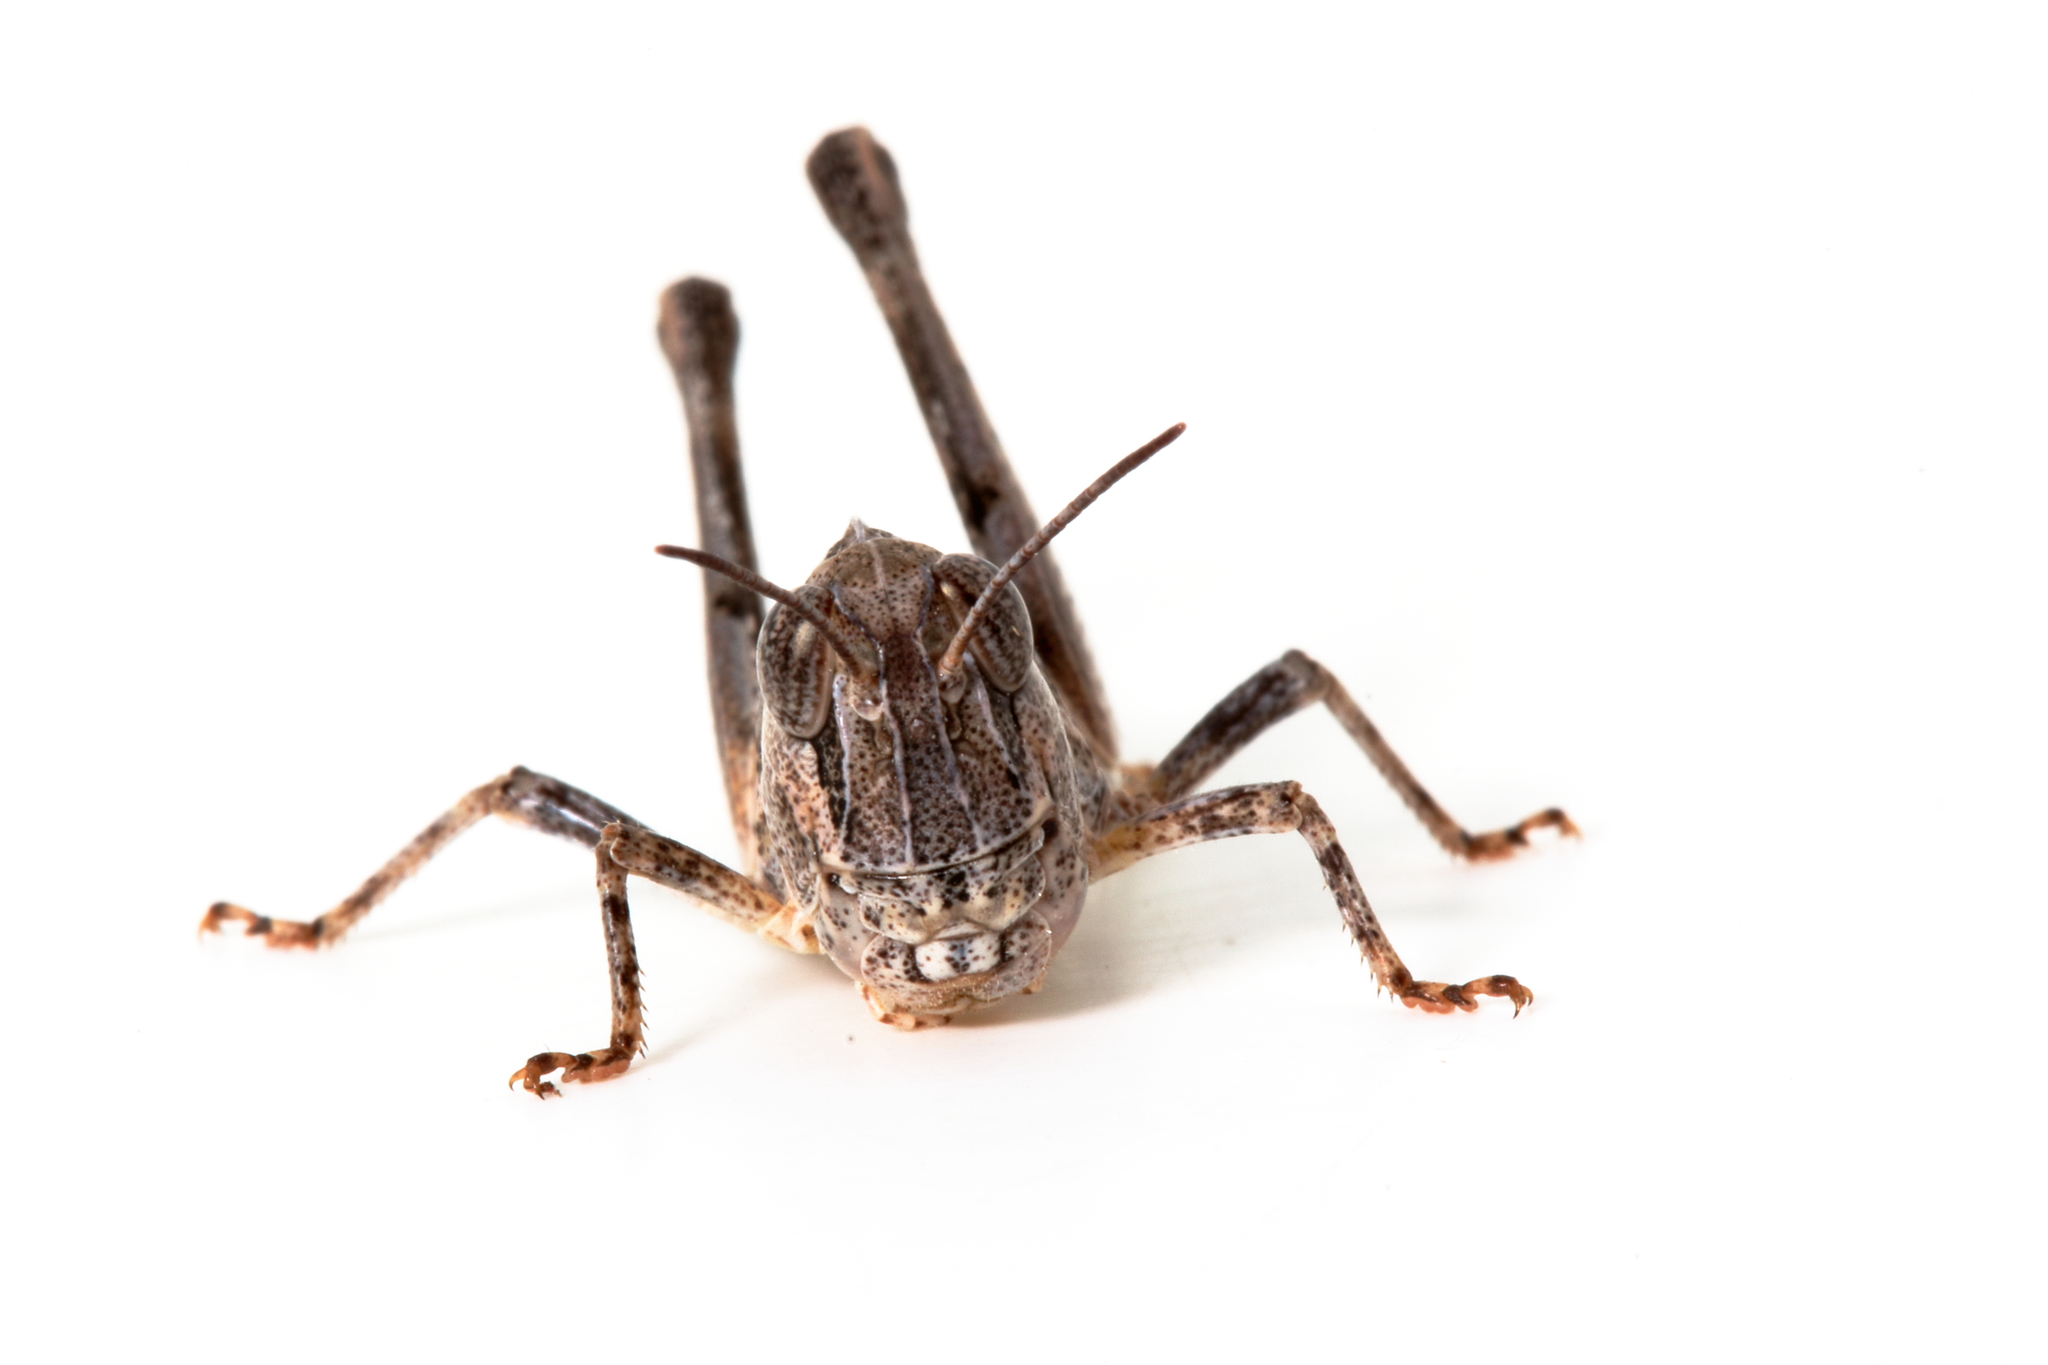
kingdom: Animalia
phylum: Arthropoda
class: Insecta
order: Orthoptera
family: Acrididae
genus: Oedaleus
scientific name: Oedaleus australis
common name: Eastern oedaleus
